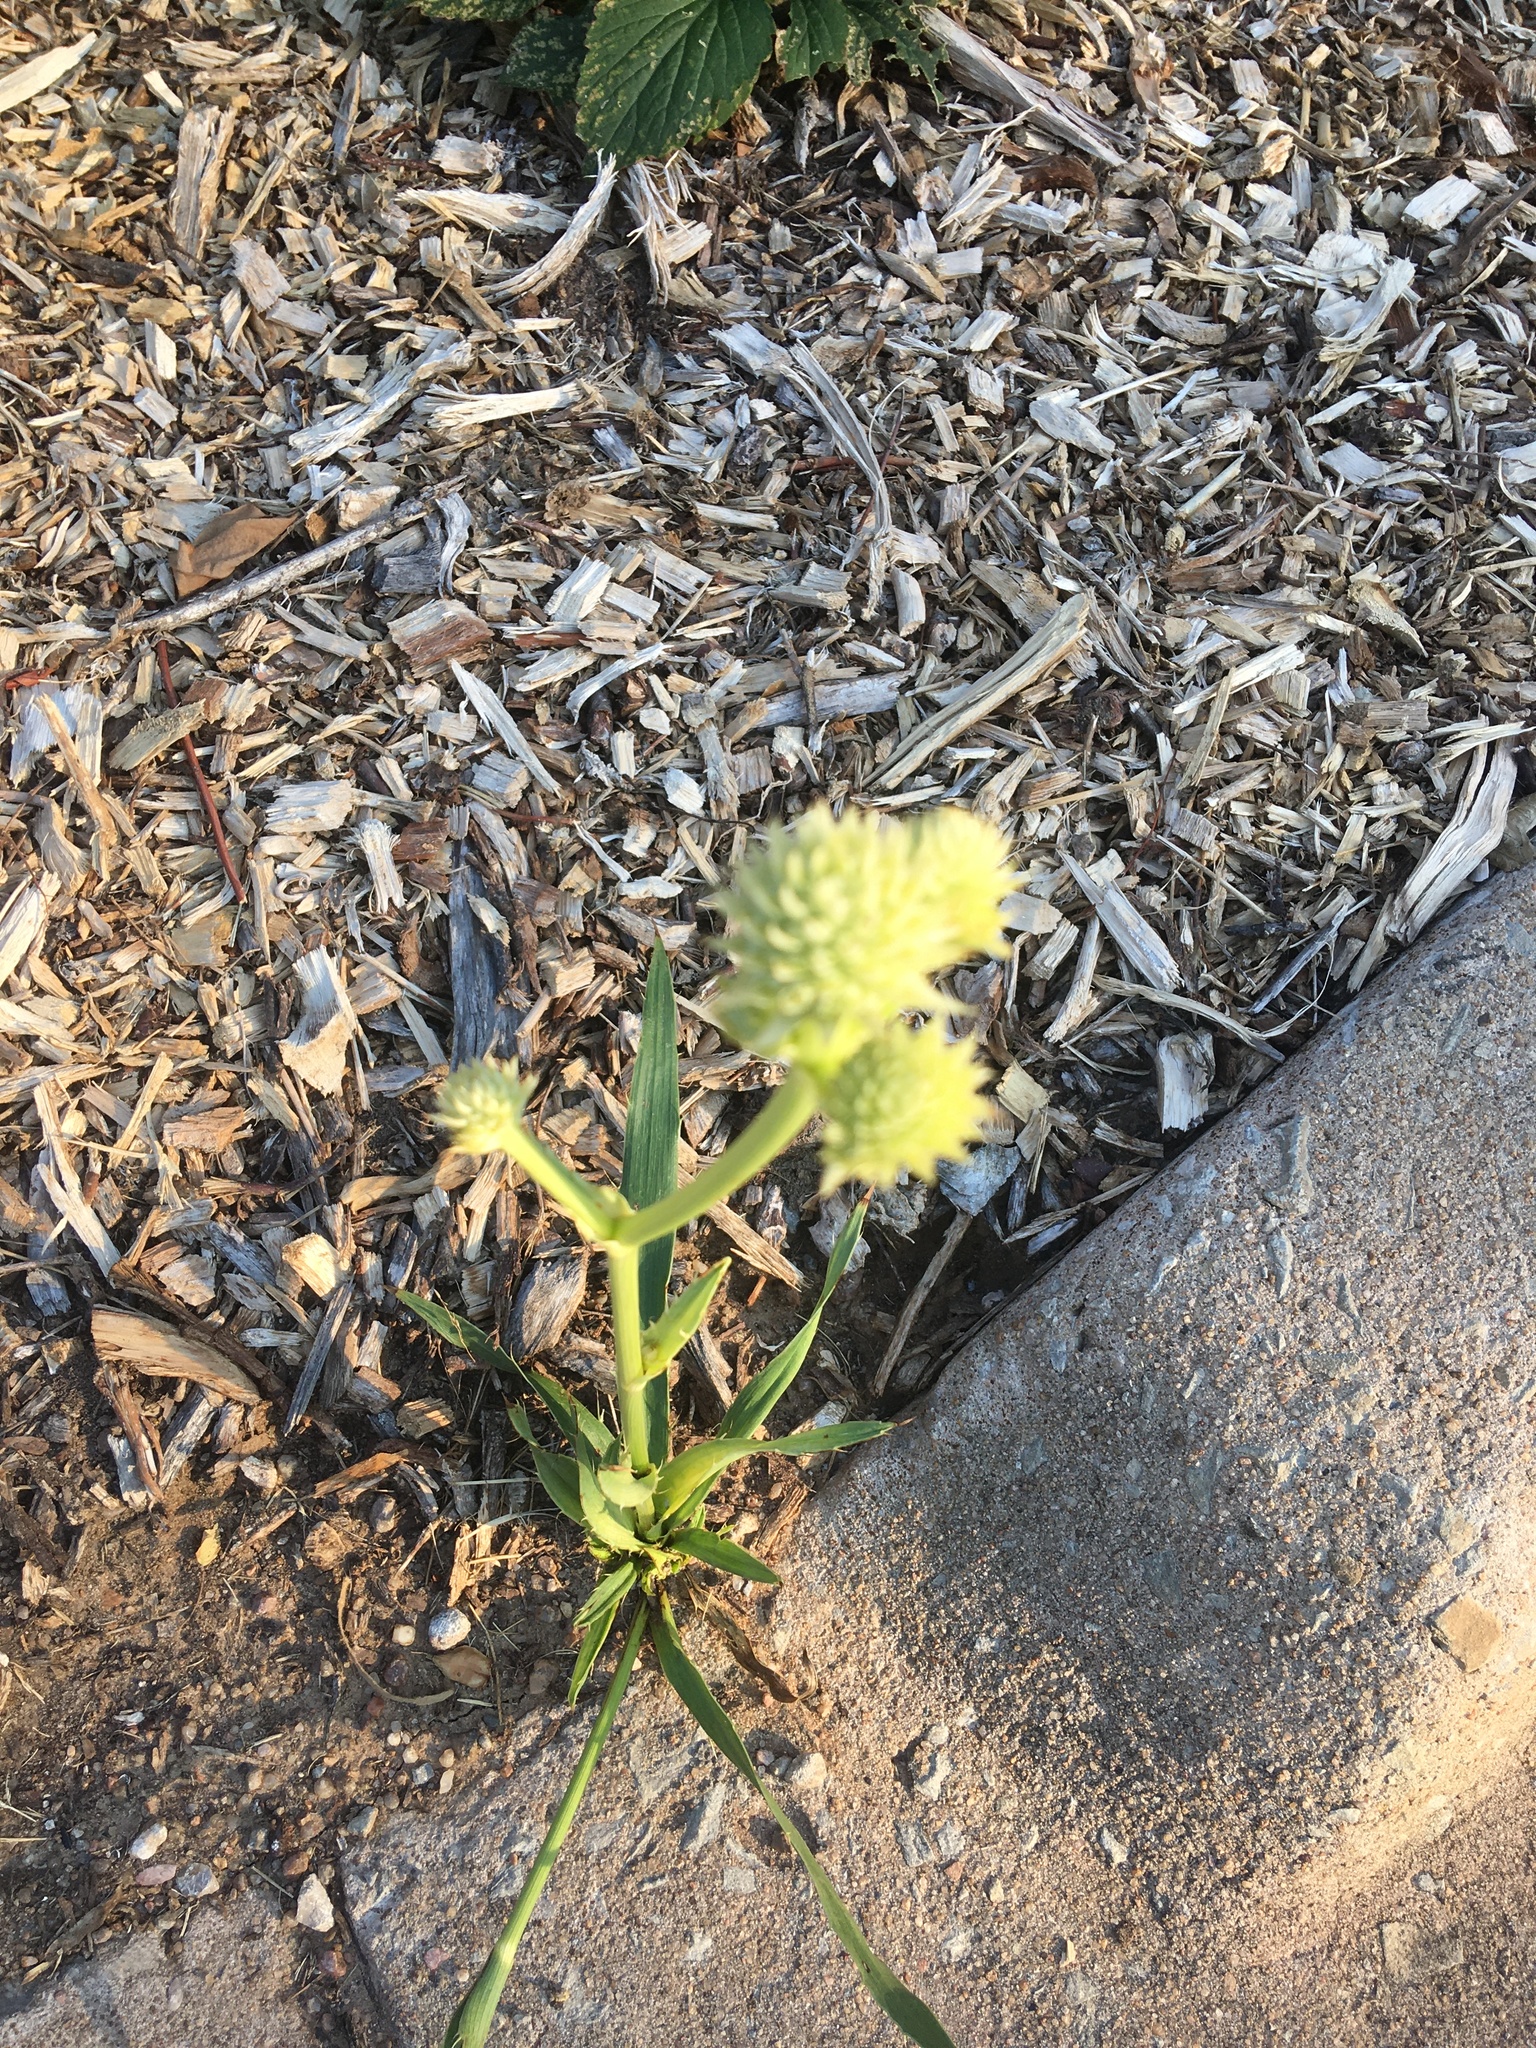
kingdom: Plantae
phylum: Tracheophyta
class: Magnoliopsida
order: Apiales
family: Apiaceae
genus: Eryngium
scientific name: Eryngium yuccifolium
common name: Button eryngo
